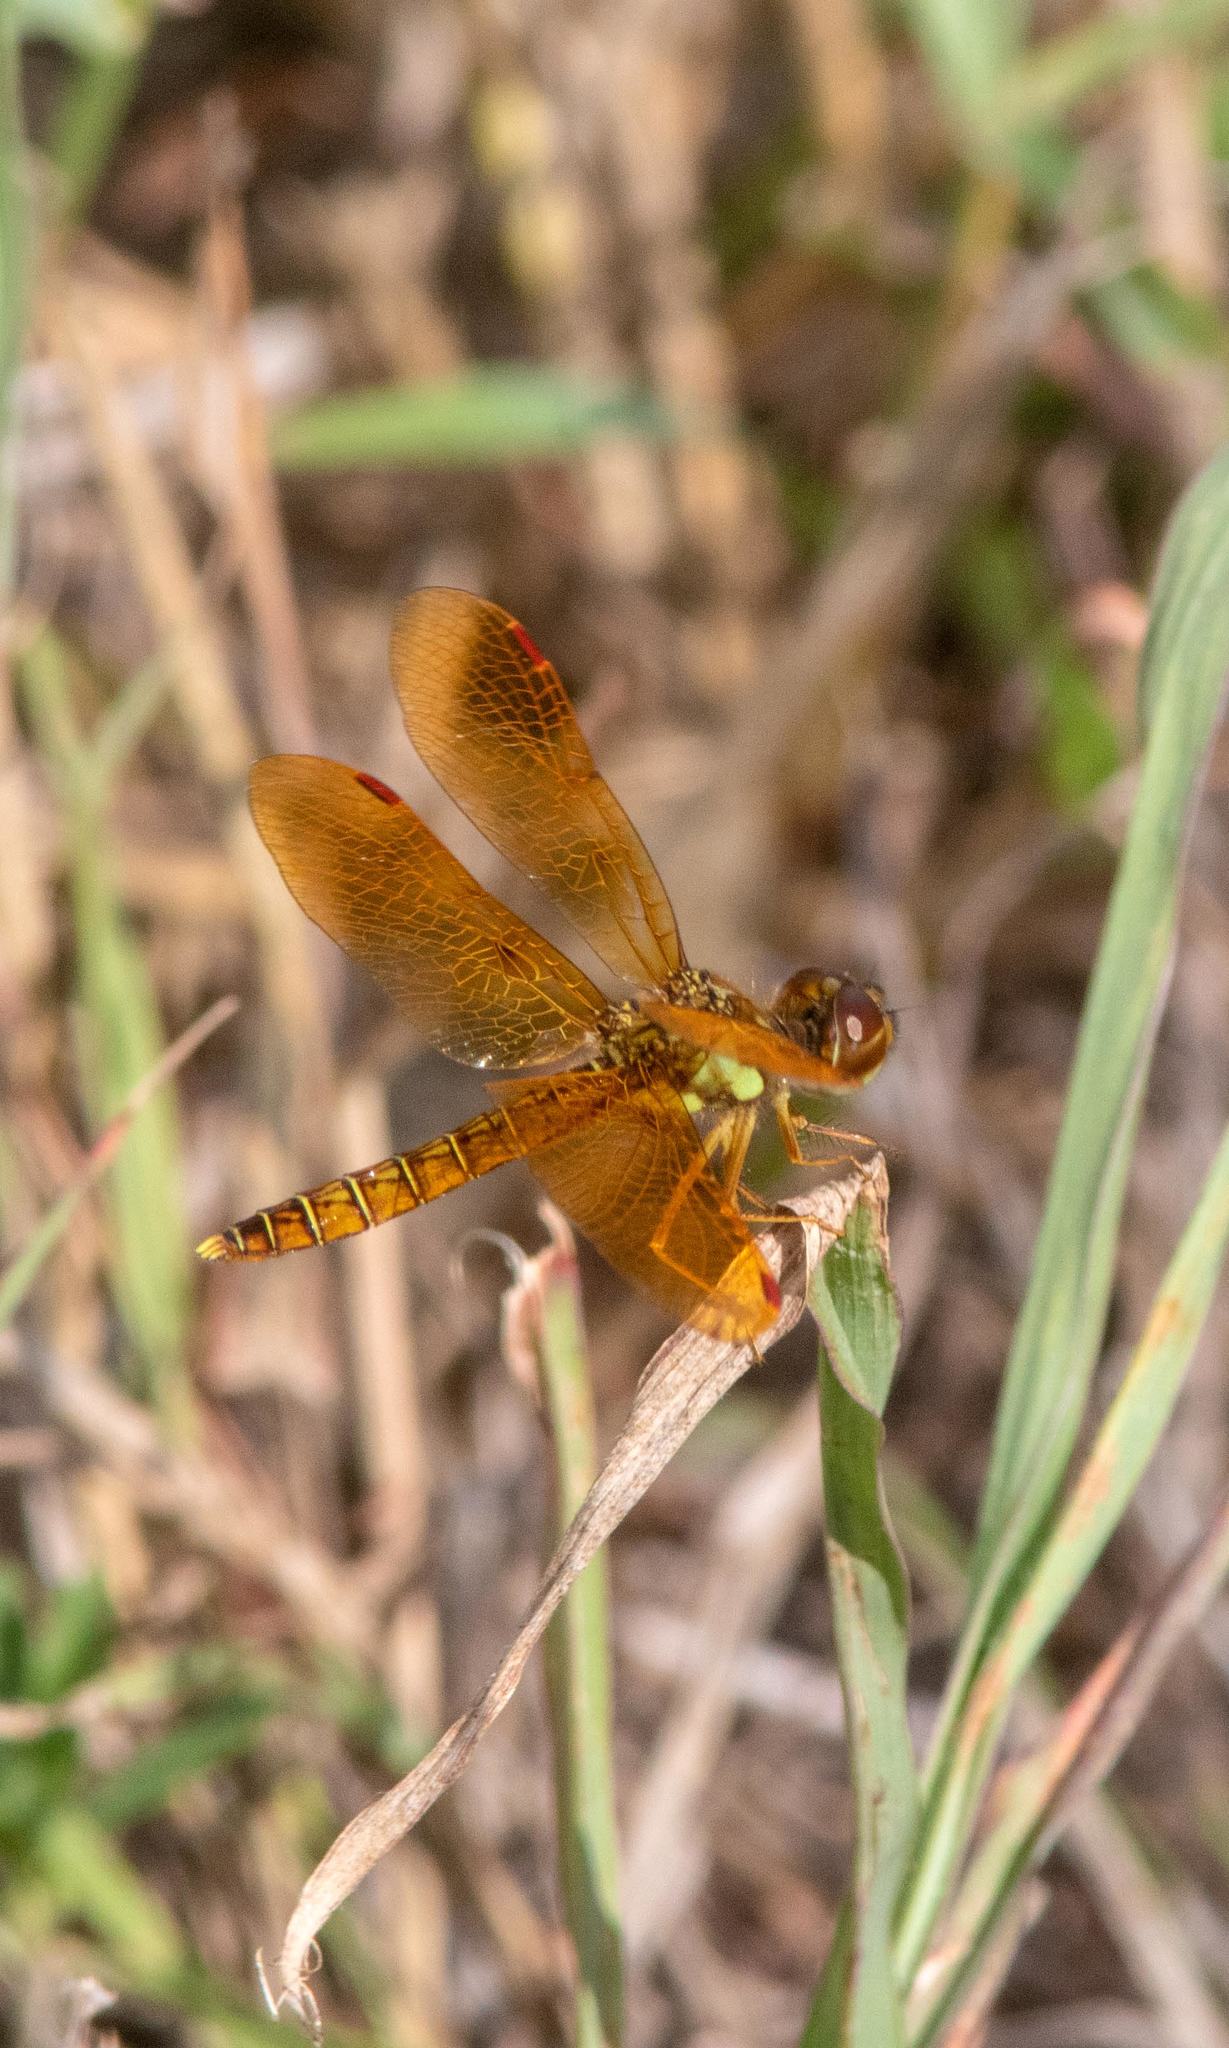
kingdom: Animalia
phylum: Arthropoda
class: Insecta
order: Odonata
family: Libellulidae
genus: Perithemis
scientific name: Perithemis tenera
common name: Eastern amberwing
